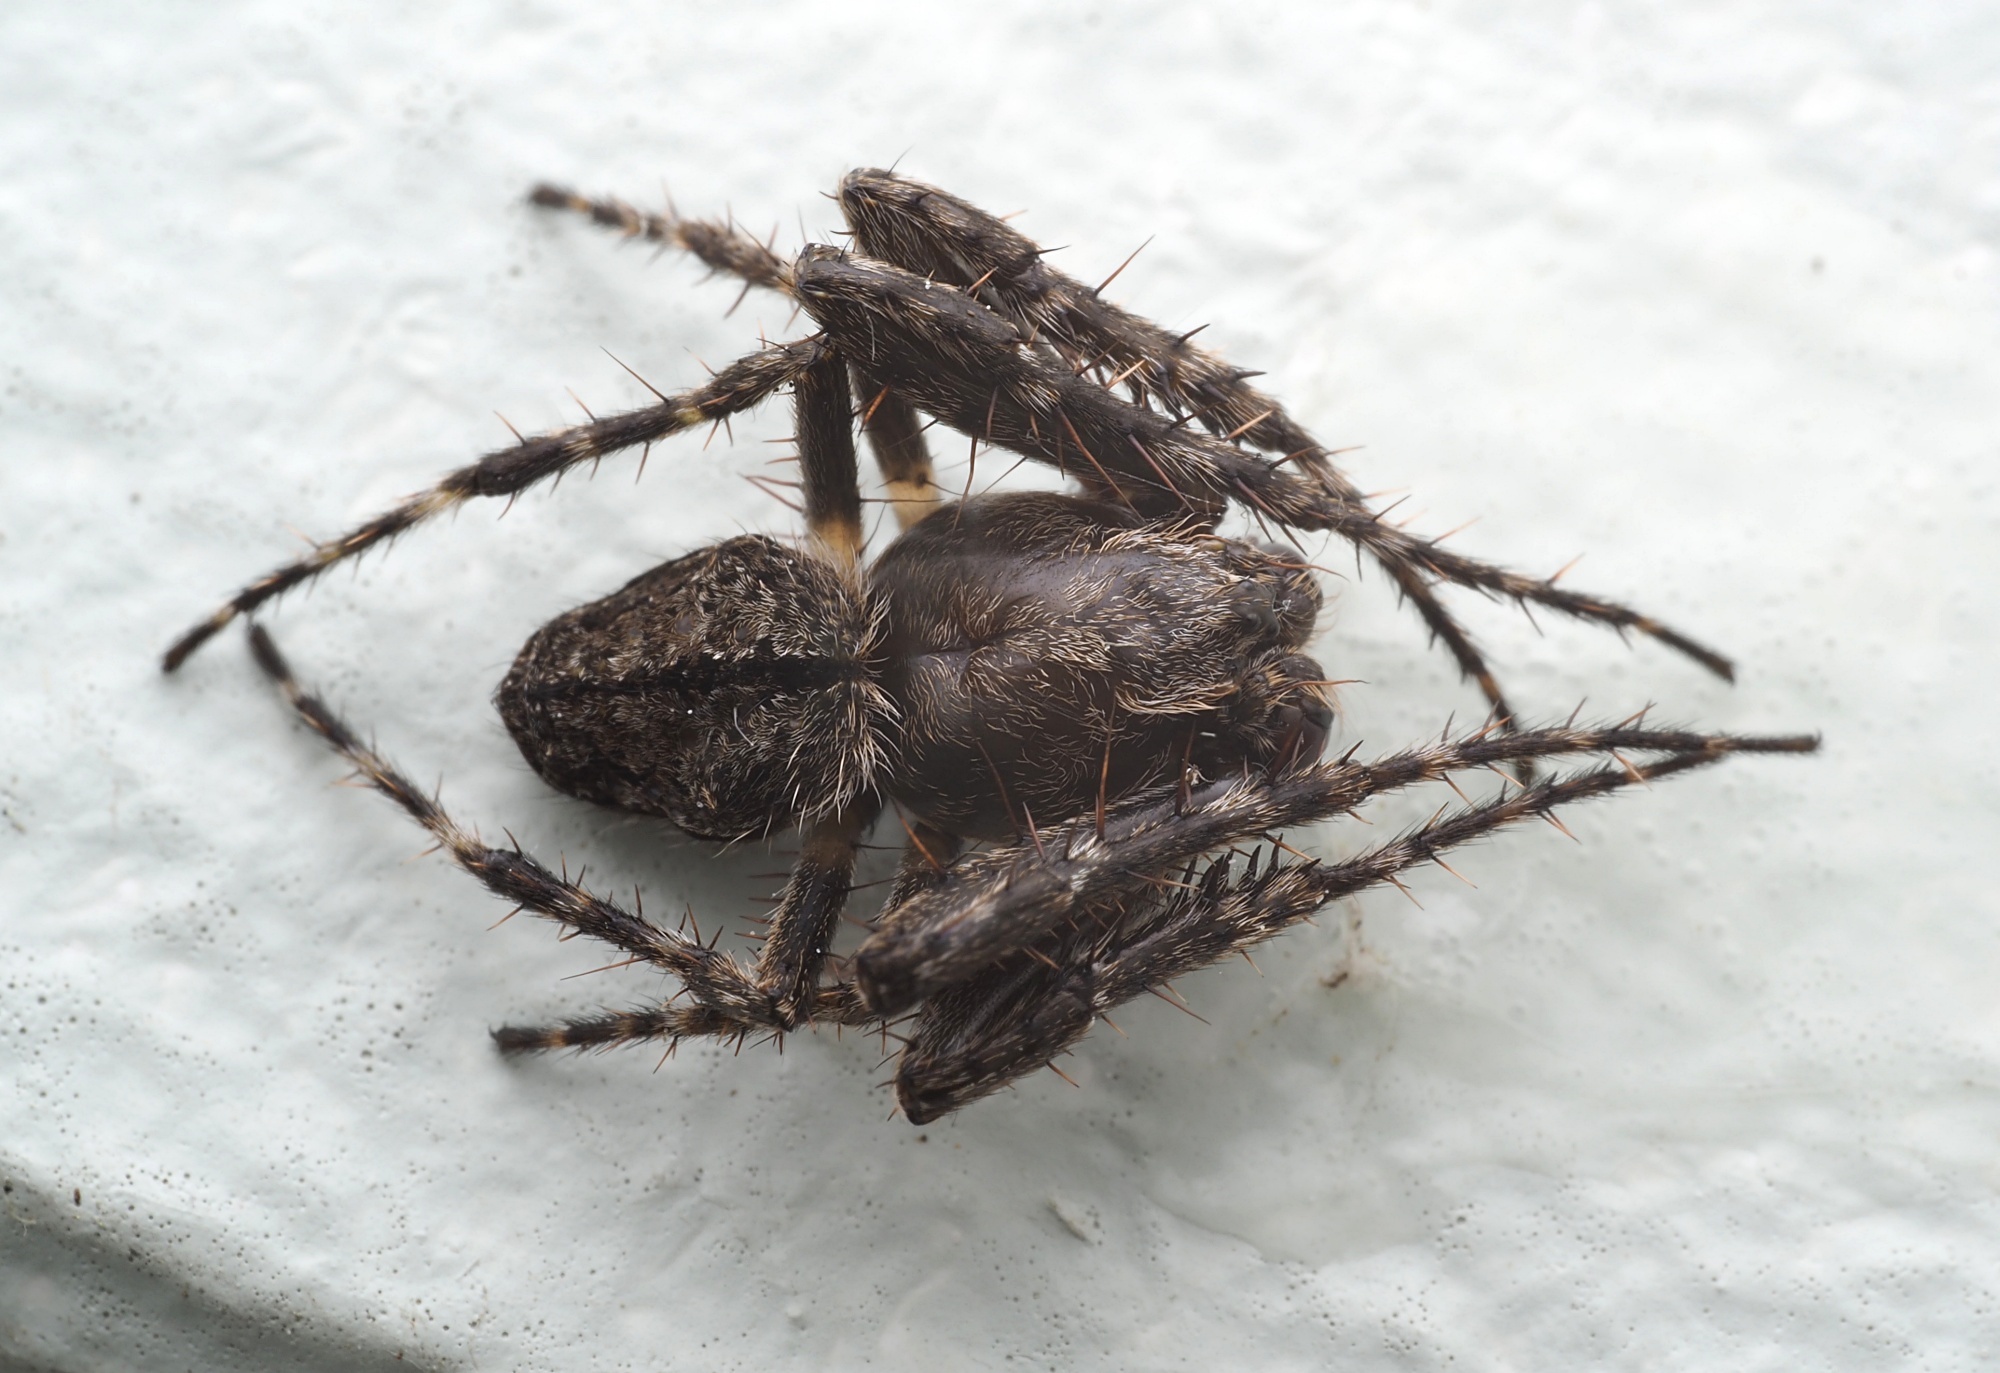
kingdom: Animalia
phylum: Arthropoda
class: Arachnida
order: Araneae
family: Araneidae
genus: Eriophora
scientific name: Eriophora pustulosa
